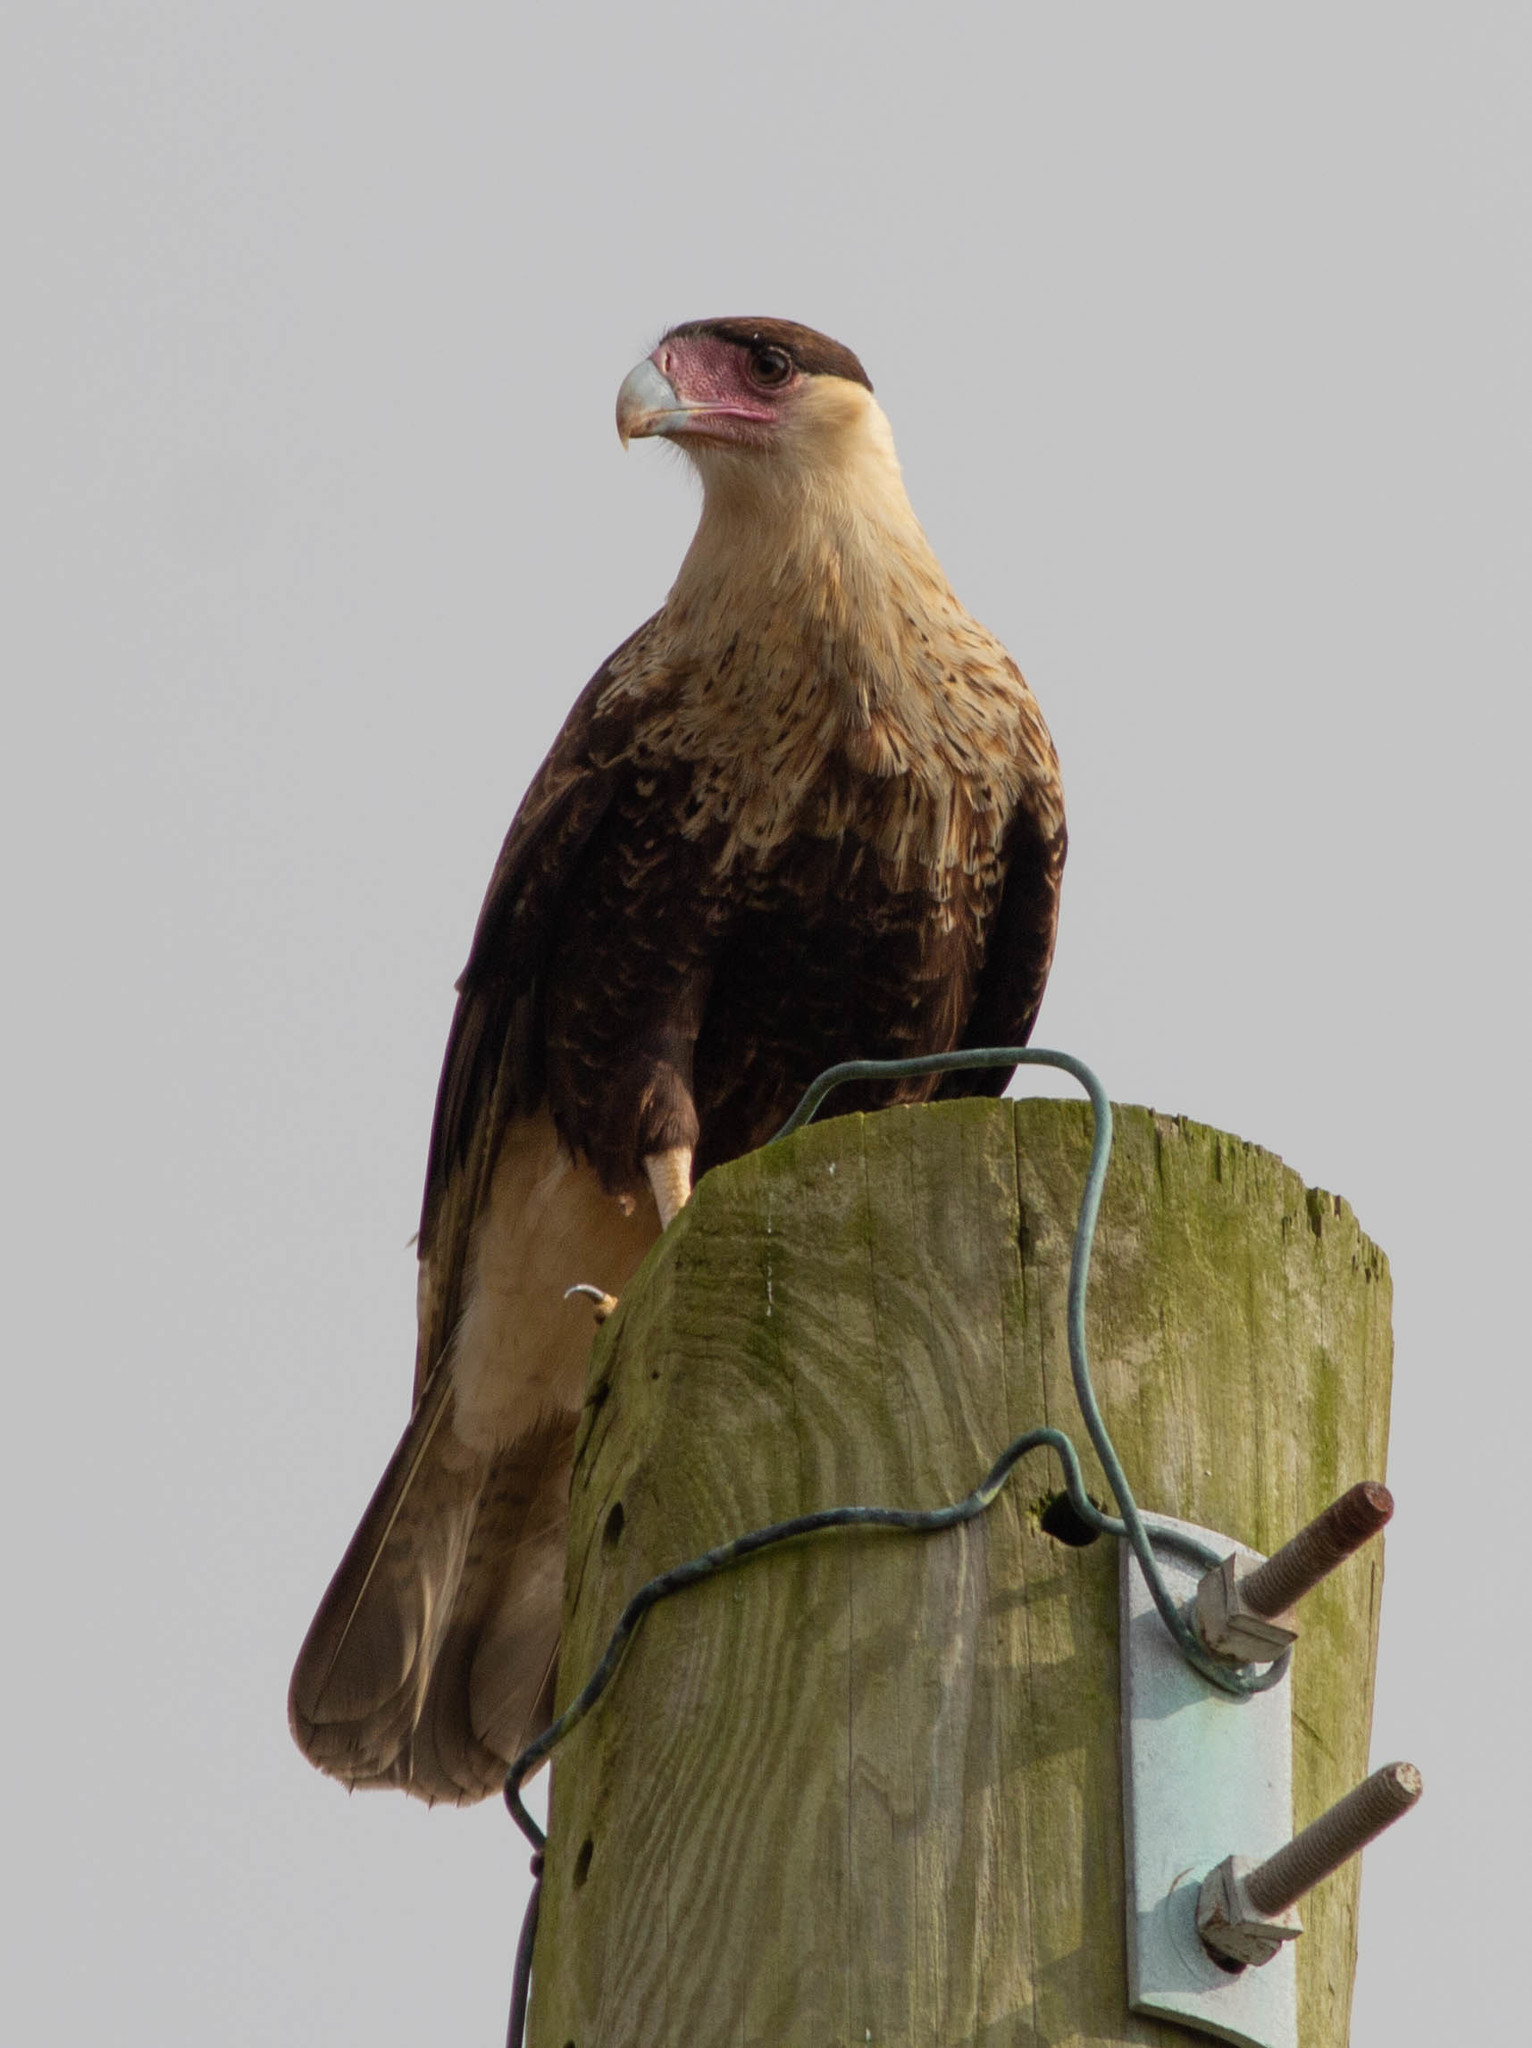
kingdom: Animalia
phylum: Chordata
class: Aves
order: Falconiformes
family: Falconidae
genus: Caracara
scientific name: Caracara plancus
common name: Southern caracara
